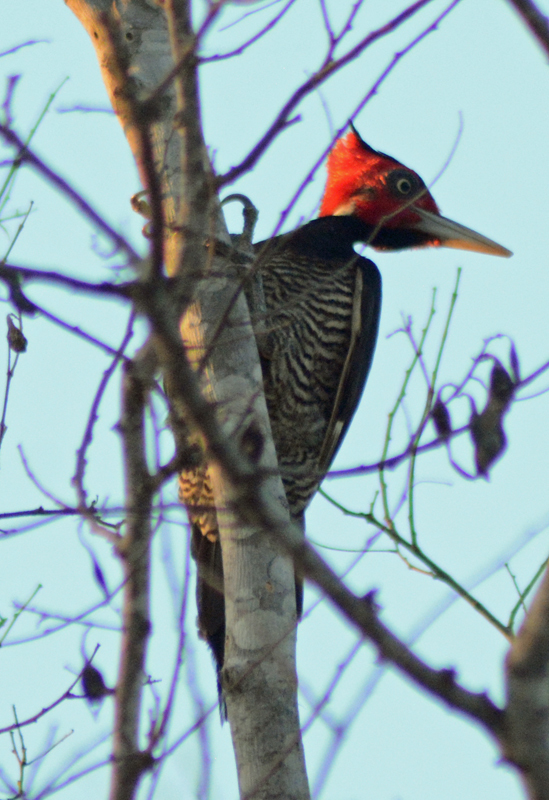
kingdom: Animalia
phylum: Chordata
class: Aves
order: Piciformes
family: Picidae
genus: Campephilus
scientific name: Campephilus guatemalensis
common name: Pale-billed woodpecker
